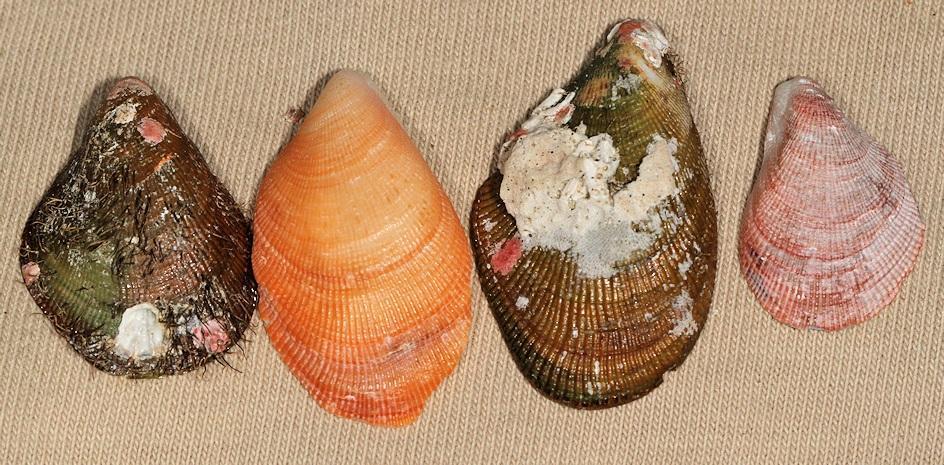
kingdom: Animalia
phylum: Mollusca
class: Bivalvia
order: Mytilida
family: Mytilidae
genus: Septifer
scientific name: Septifer bilocularis
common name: Ledge mussel
